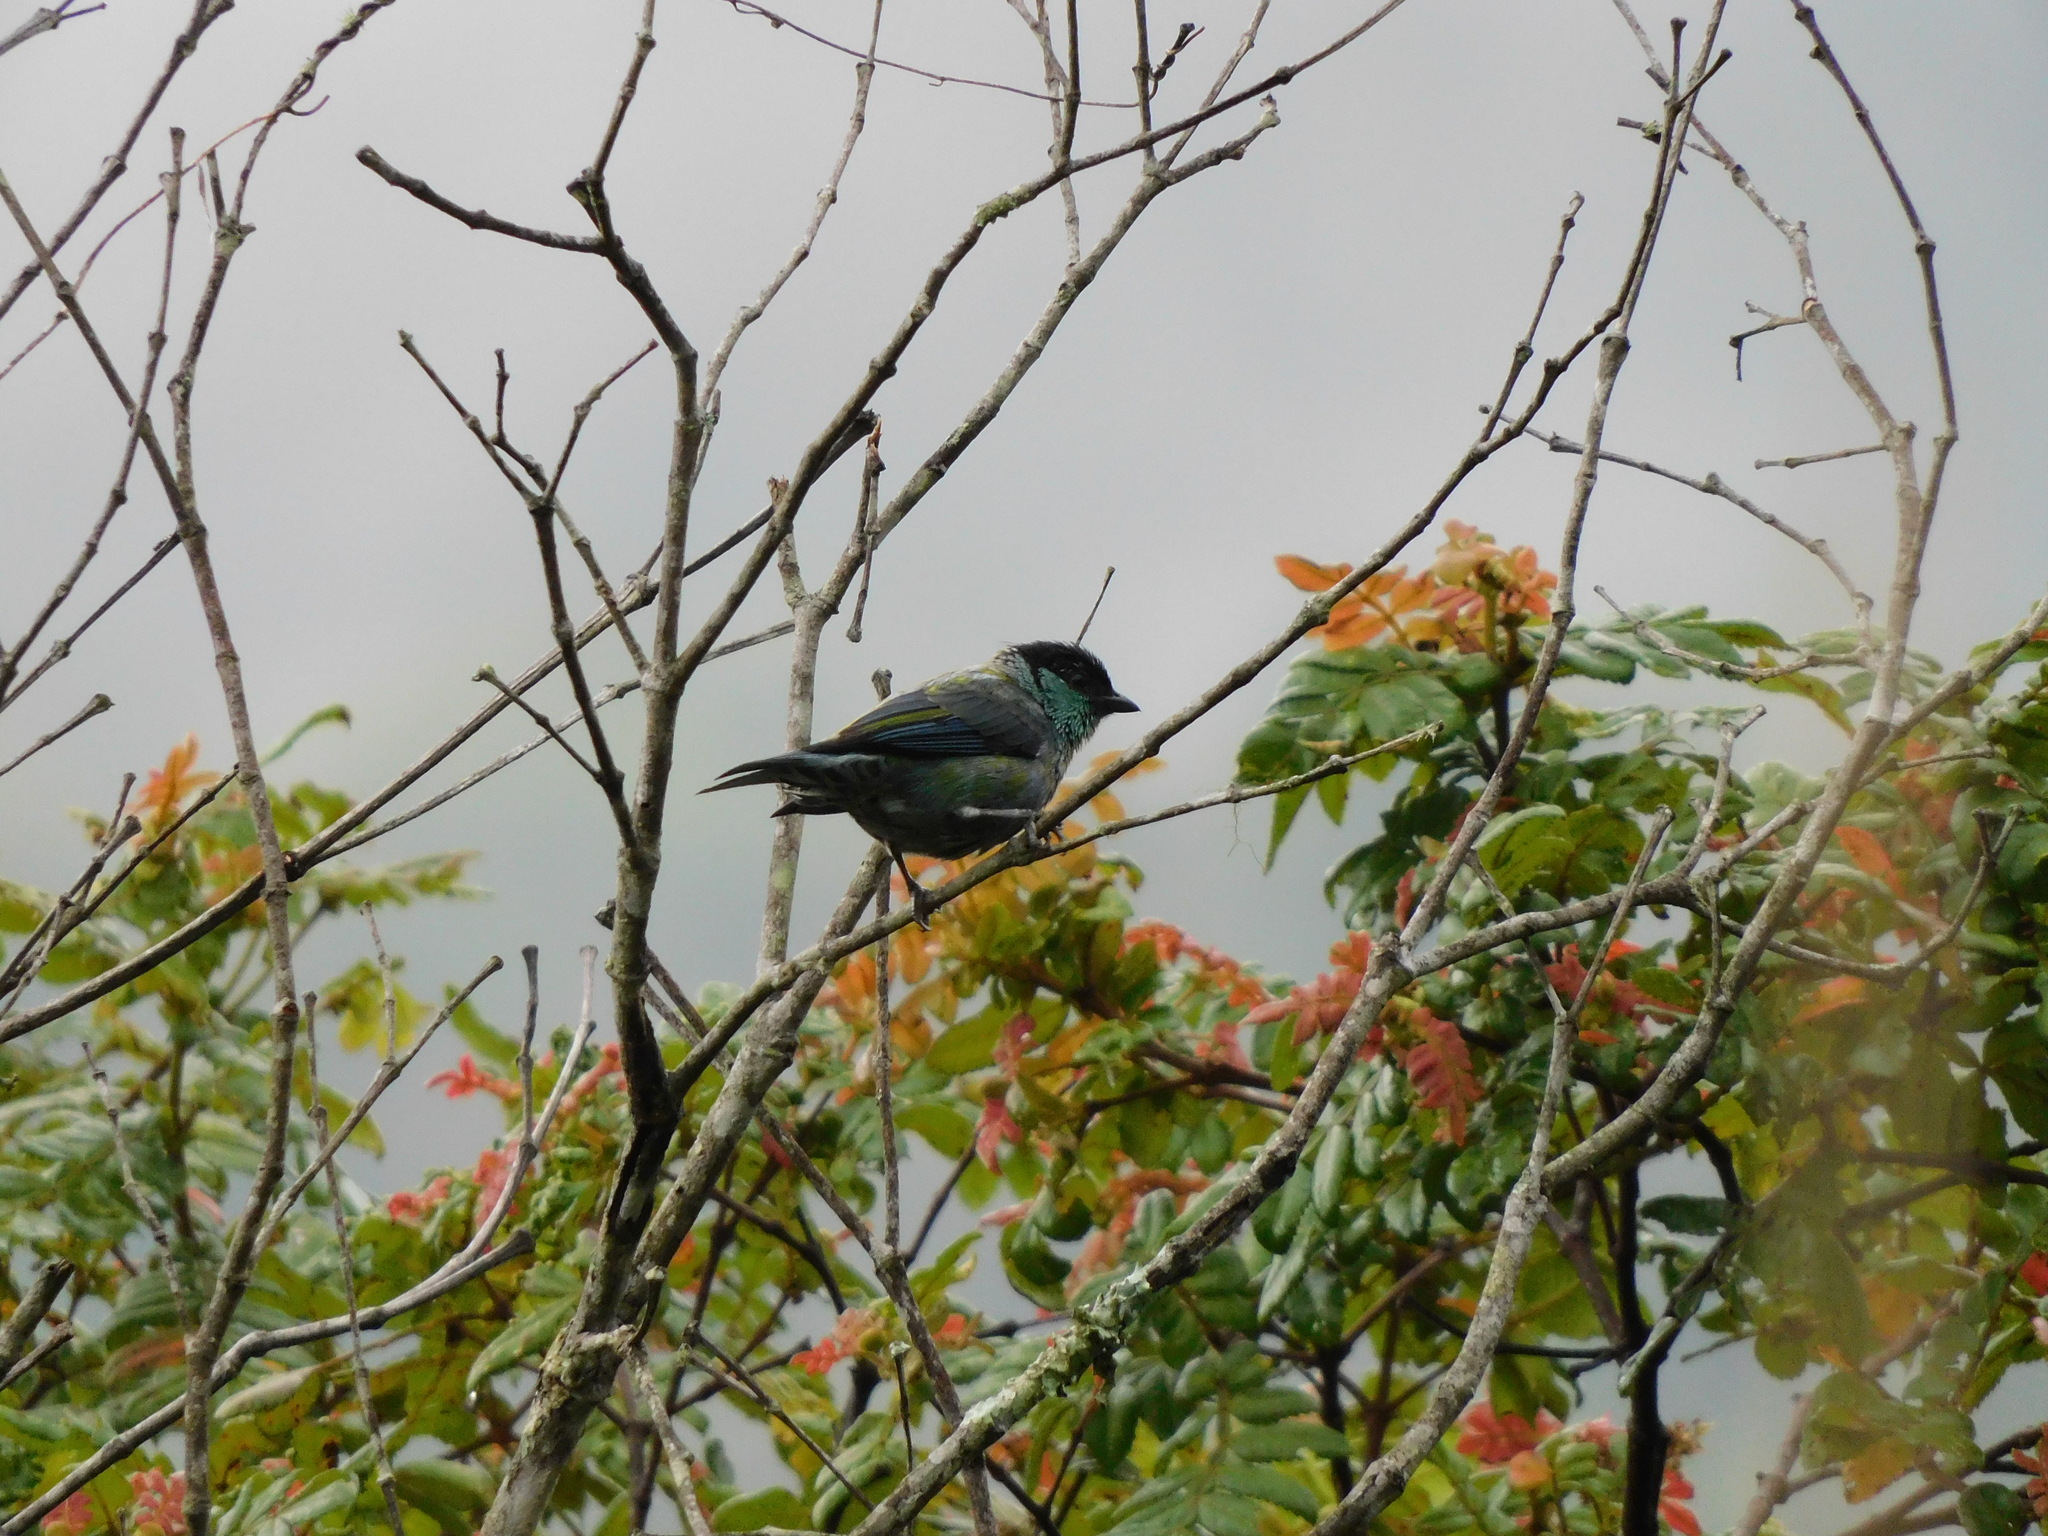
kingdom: Animalia
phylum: Chordata
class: Aves
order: Passeriformes
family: Thraupidae
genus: Stilpnia
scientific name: Stilpnia heinei
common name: Black-capped tanager
